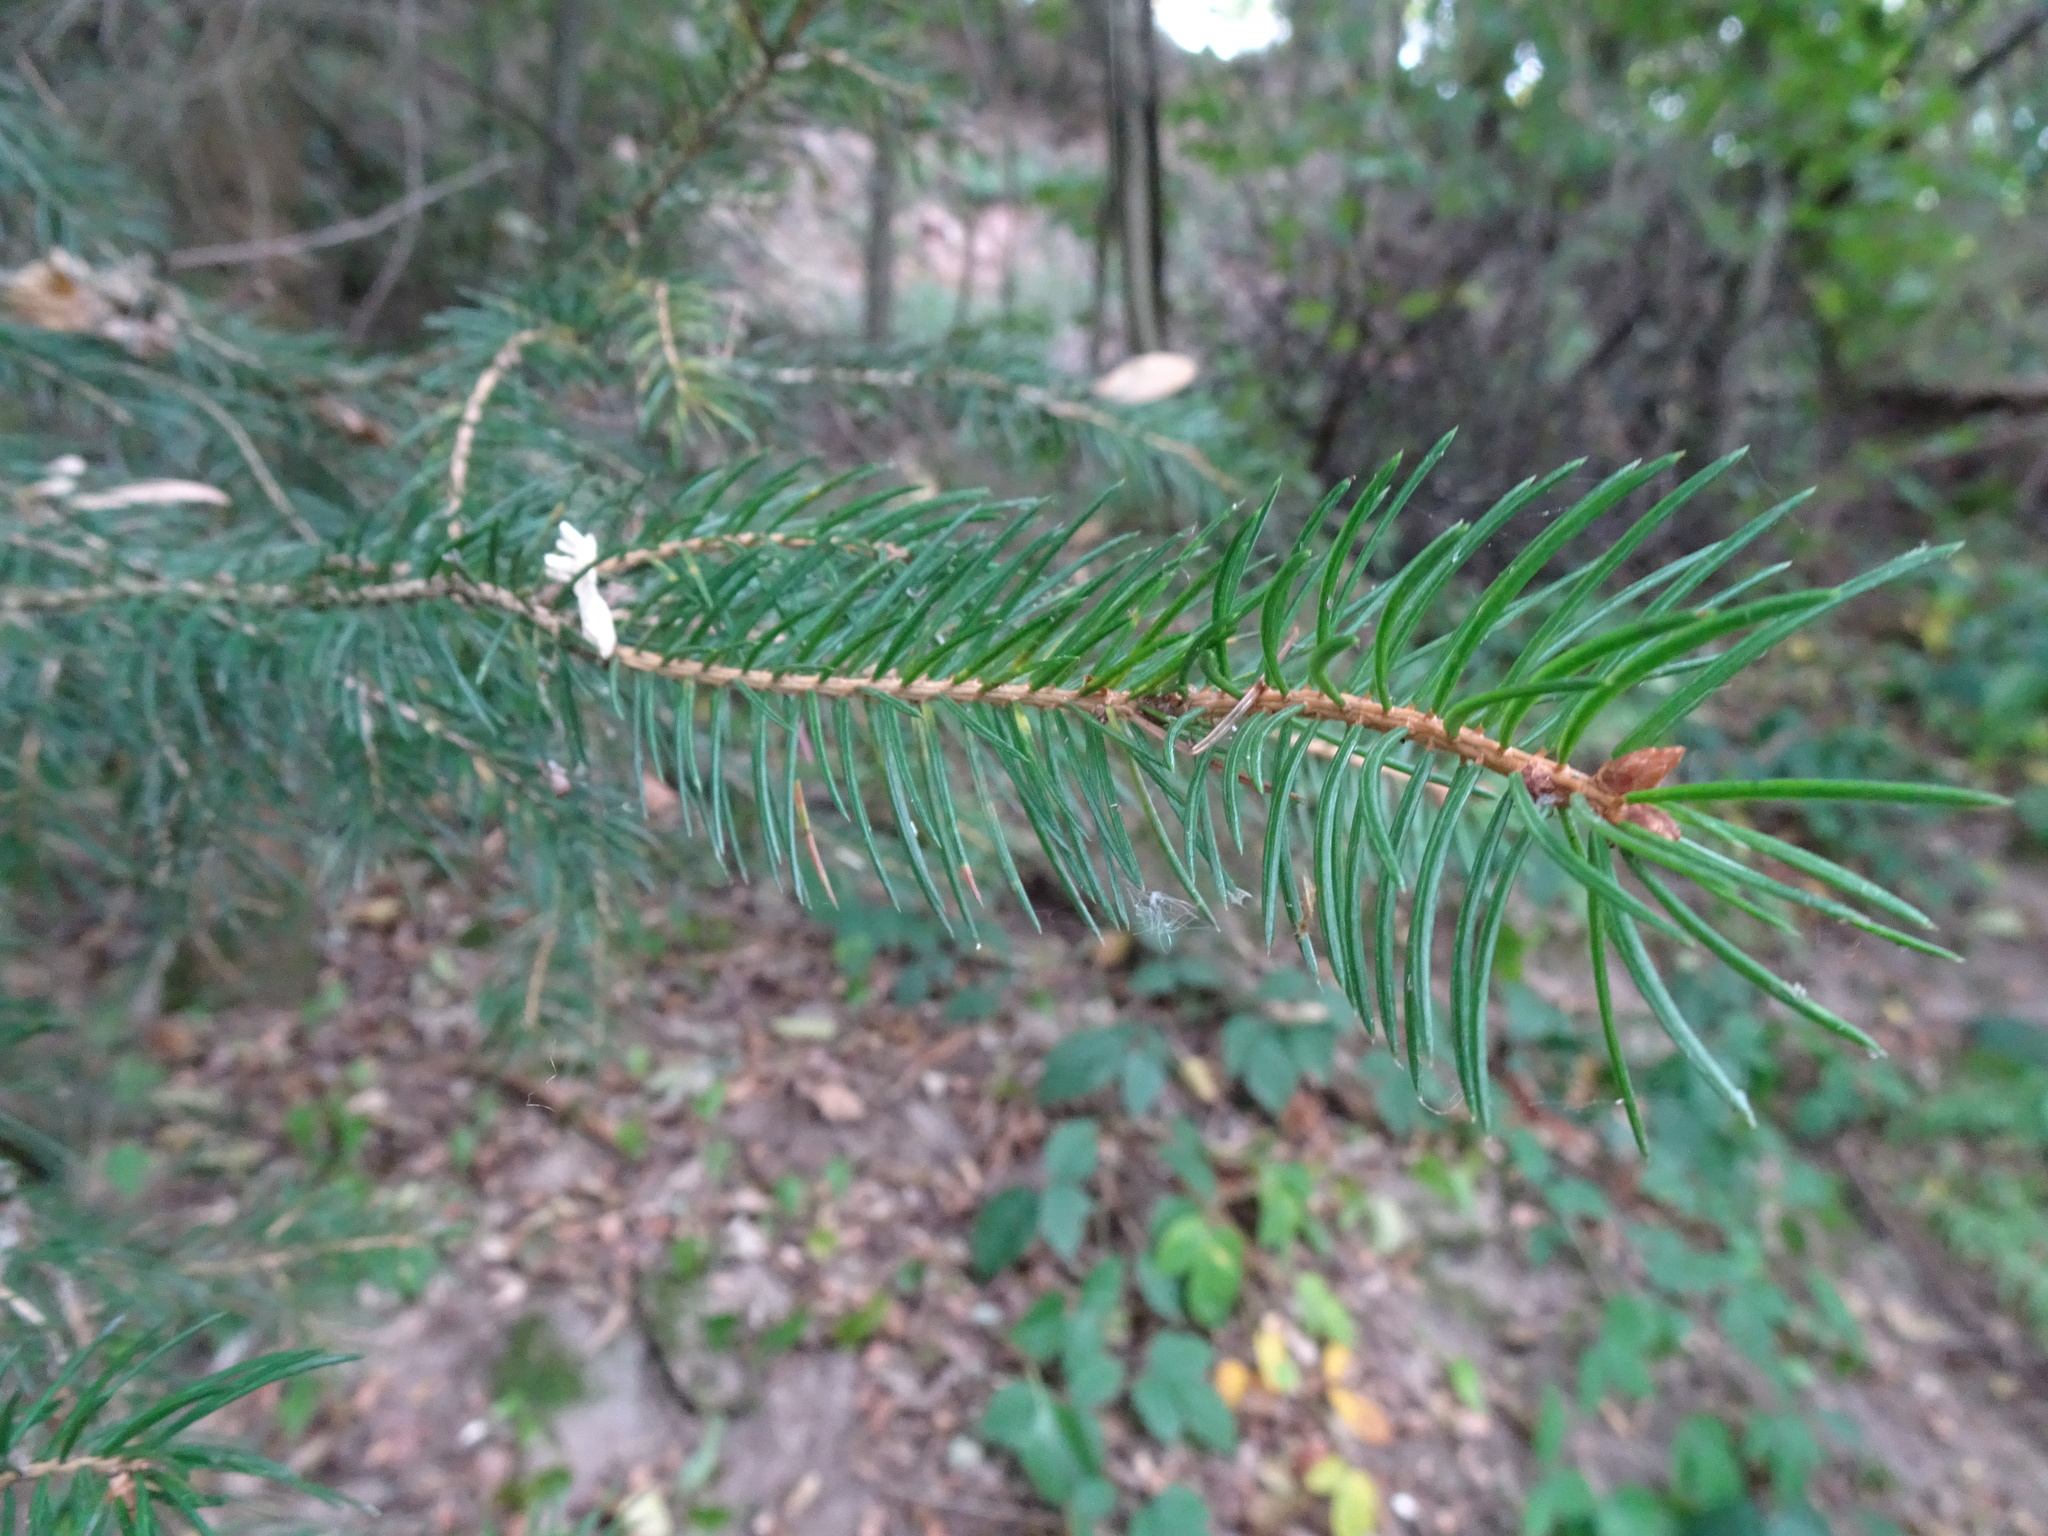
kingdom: Plantae
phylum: Tracheophyta
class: Pinopsida
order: Pinales
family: Pinaceae
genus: Picea
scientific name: Picea abies
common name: Norway spruce
